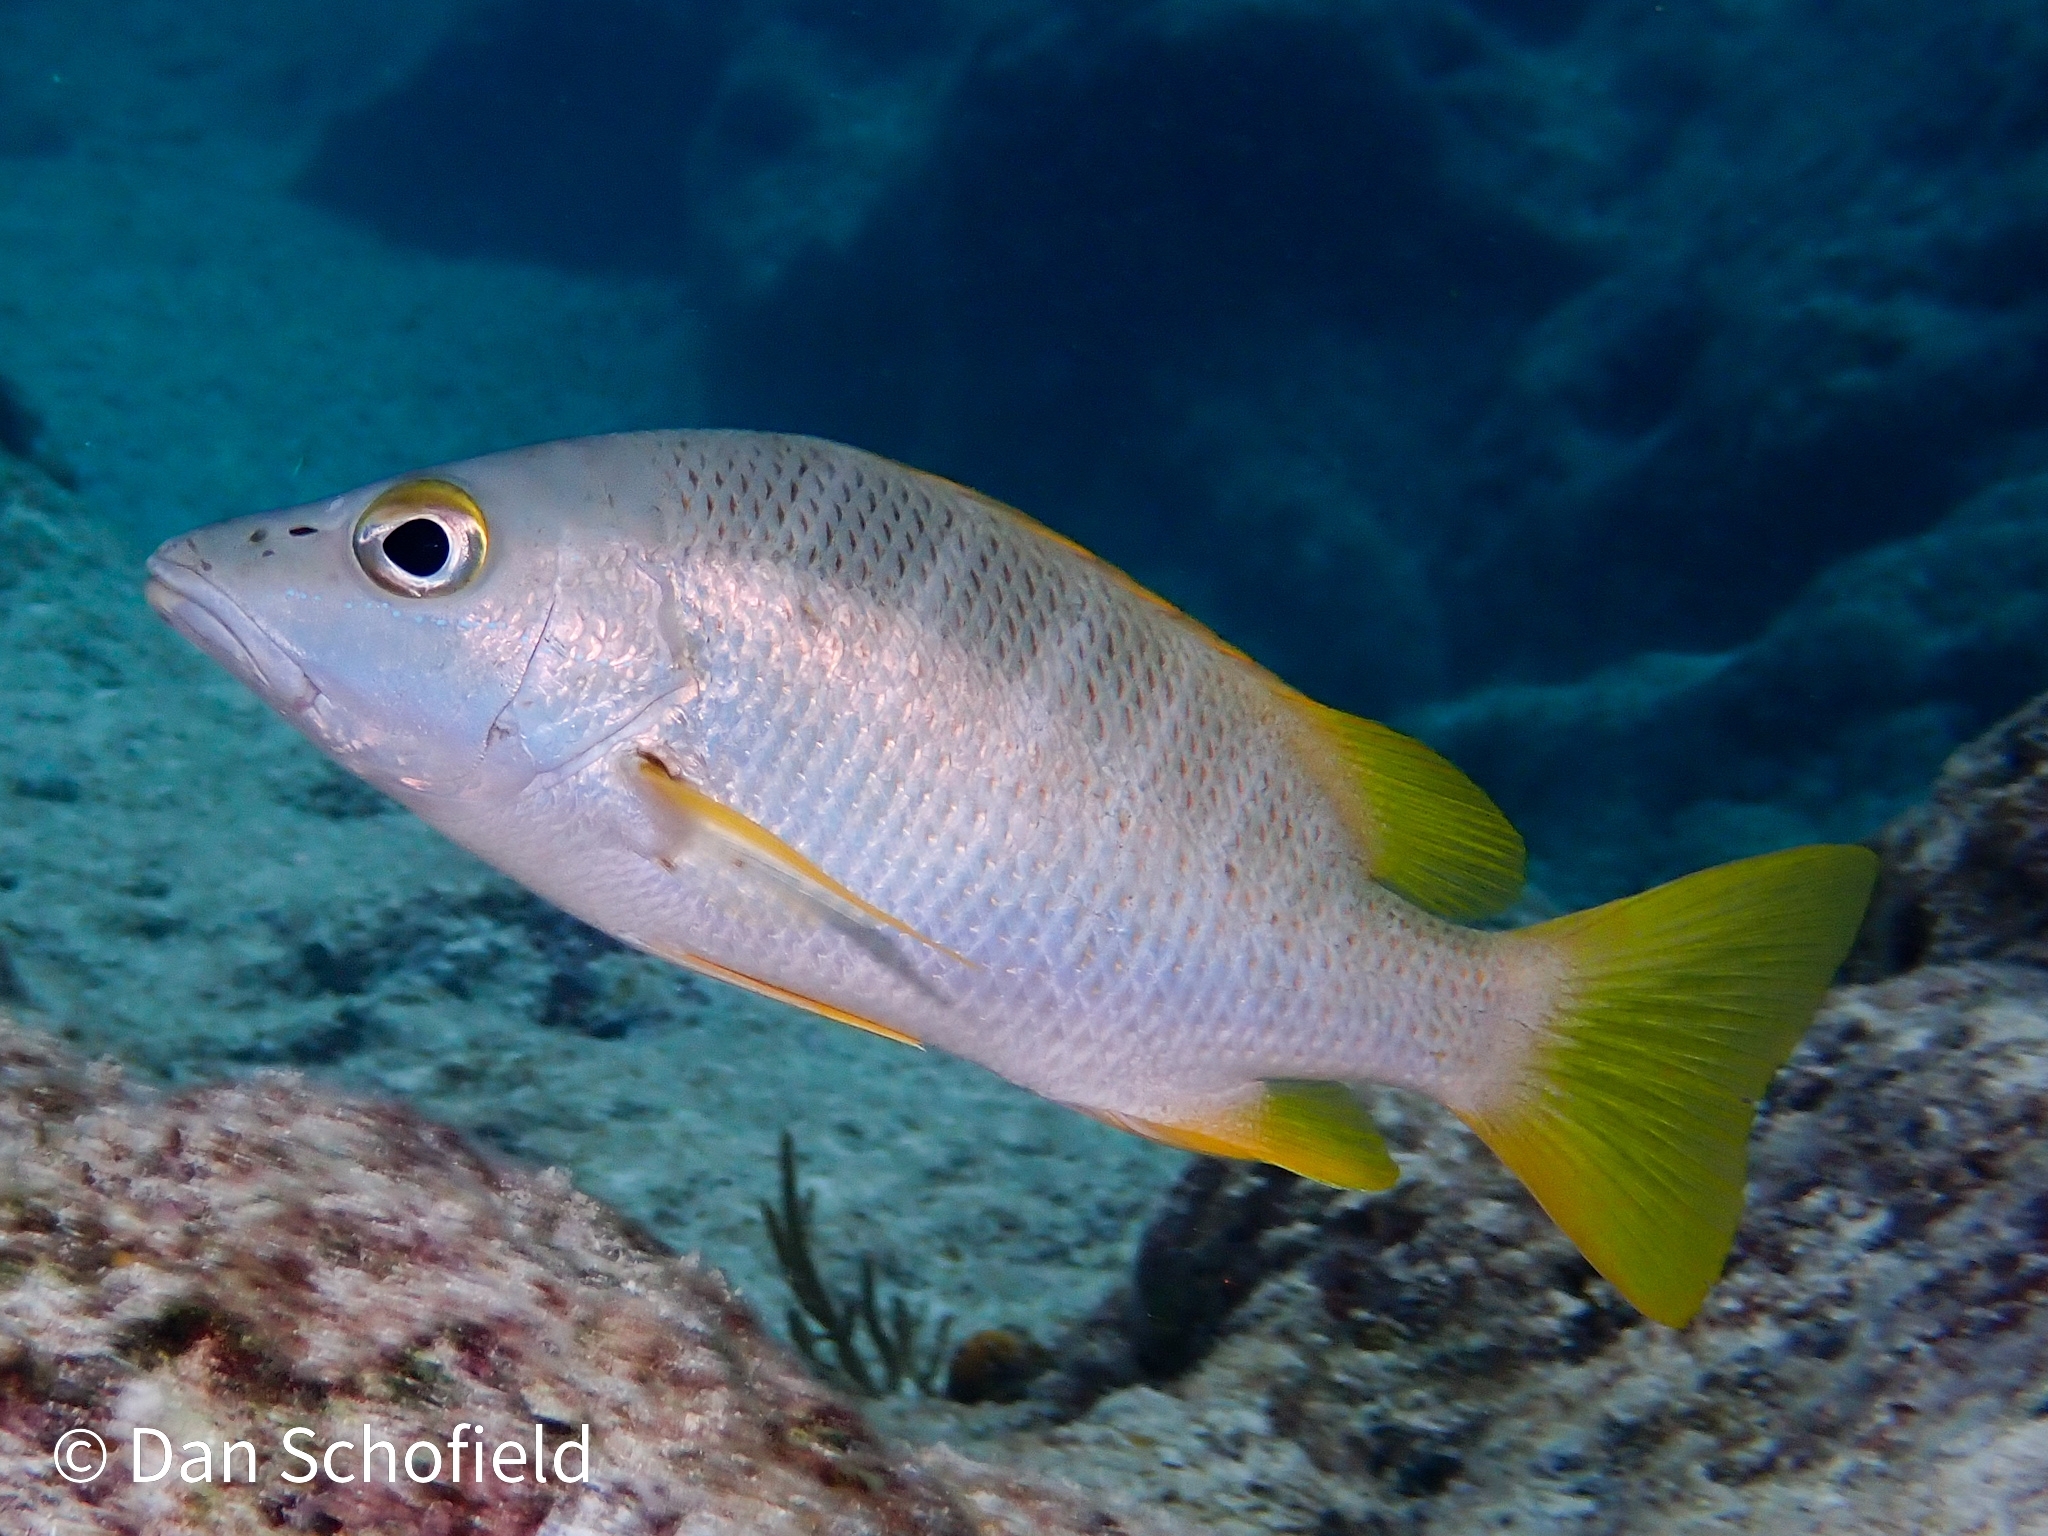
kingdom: Animalia
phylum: Chordata
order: Perciformes
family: Lutjanidae
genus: Lutjanus
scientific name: Lutjanus apodus
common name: Schoolmaster
